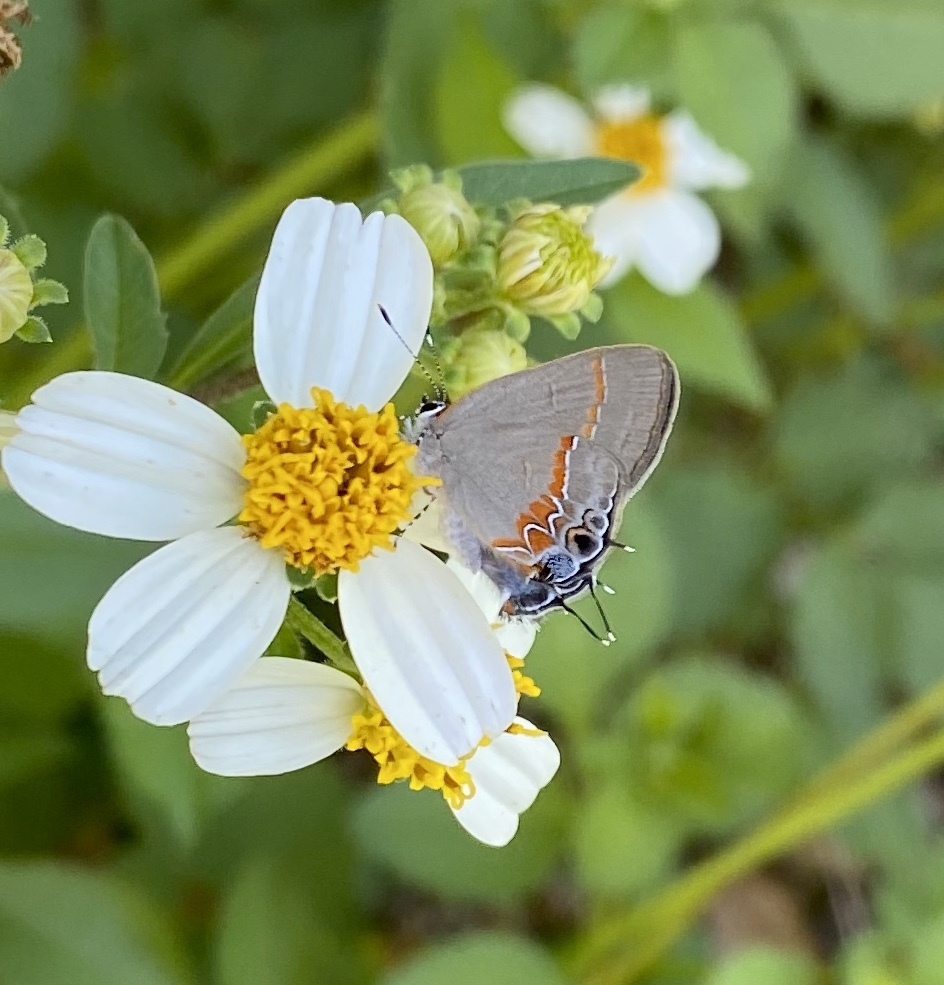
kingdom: Animalia
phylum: Arthropoda
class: Insecta
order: Lepidoptera
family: Lycaenidae
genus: Calycopis
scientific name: Calycopis cecrops
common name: Red-banded hairstreak
